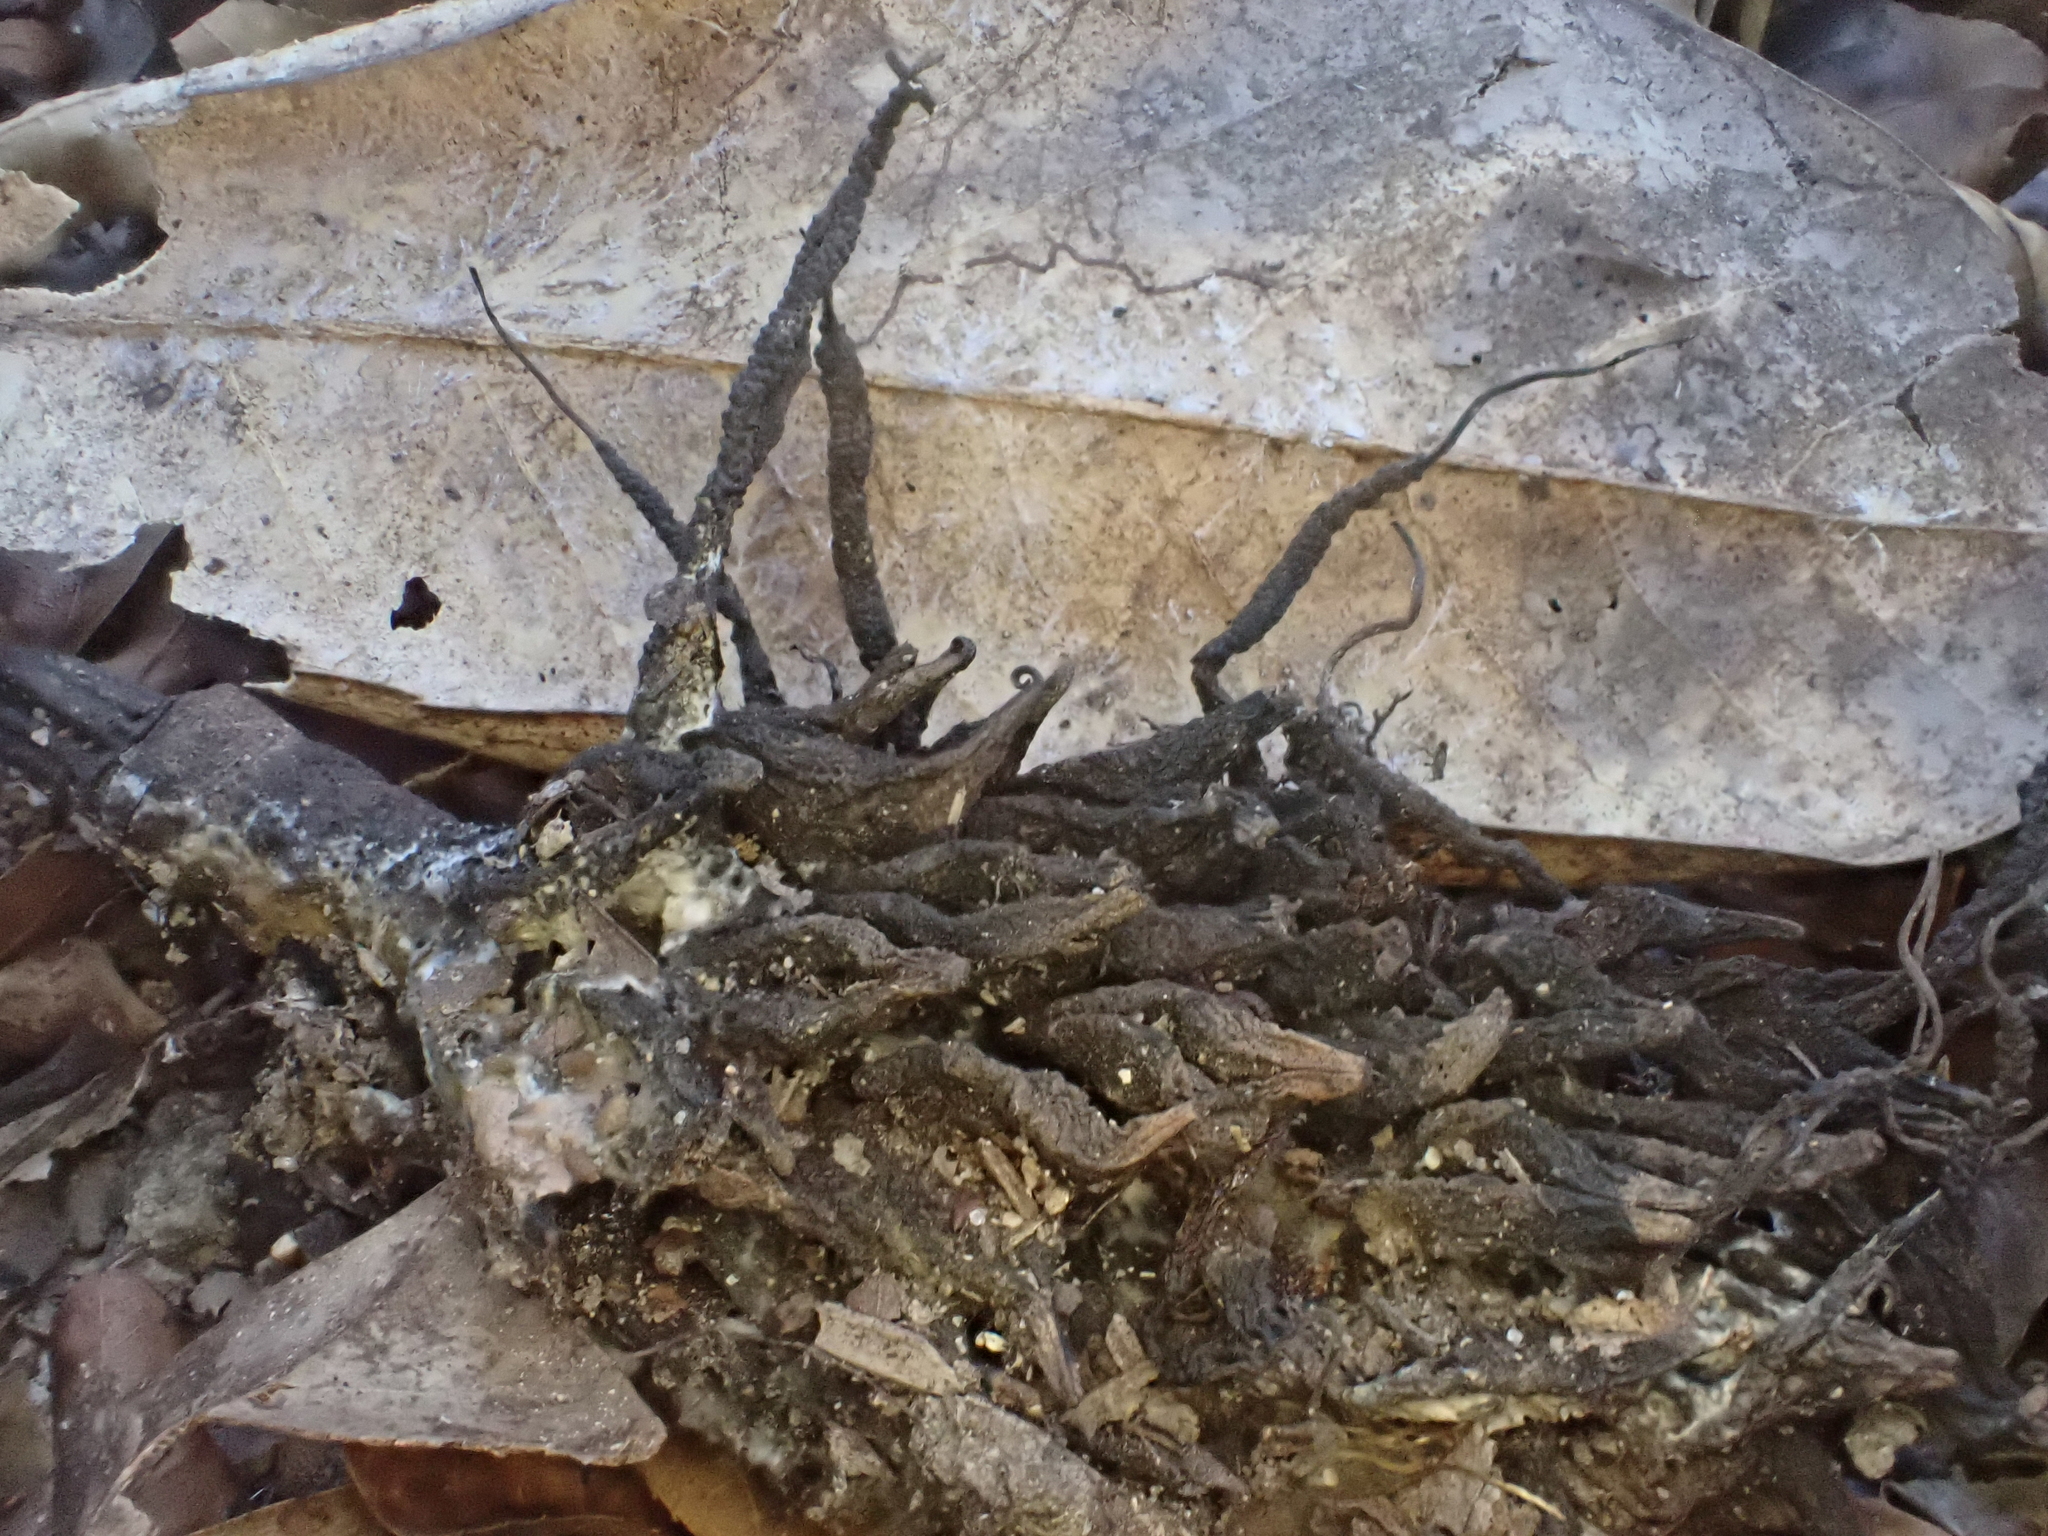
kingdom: Fungi
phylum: Ascomycota
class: Sordariomycetes
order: Xylariales
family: Xylariaceae
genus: Xylaria
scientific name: Xylaria magnoliae
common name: Magnolia-cone xylaria
